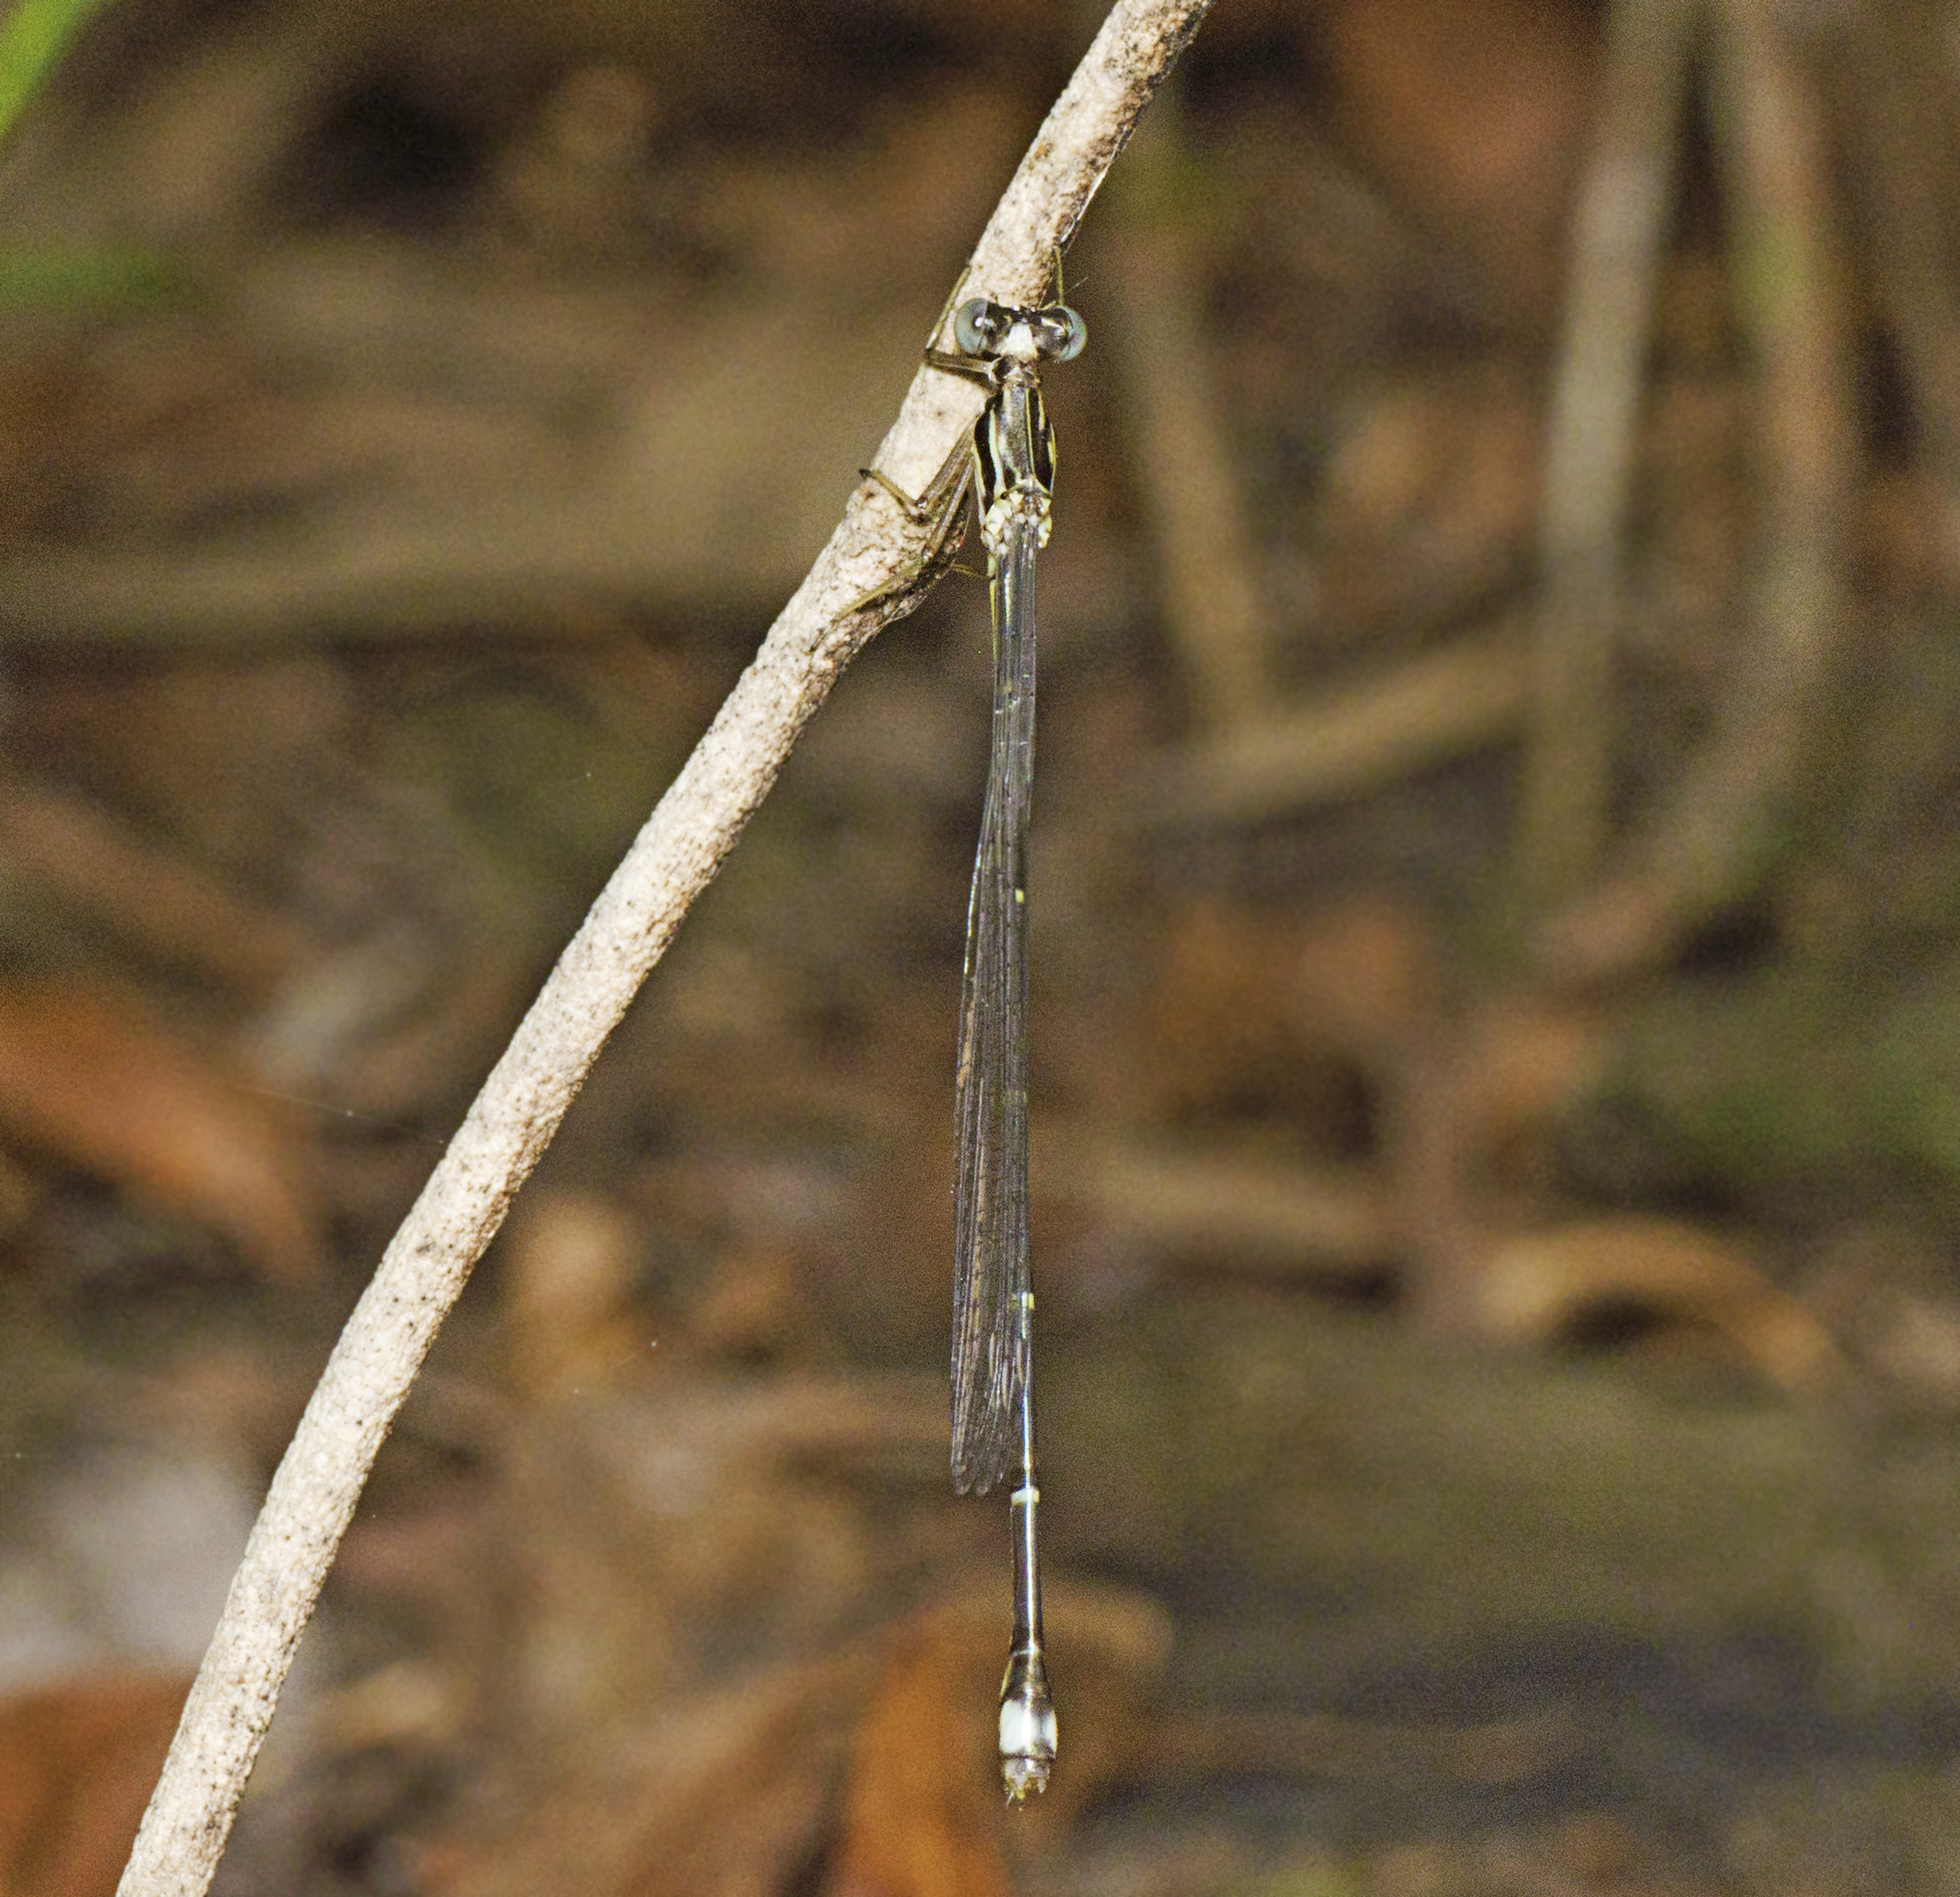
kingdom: Animalia
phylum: Arthropoda
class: Insecta
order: Odonata
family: Isostictidae
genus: Labidiosticta
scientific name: Labidiosticta vallisi
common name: Large wiretail
